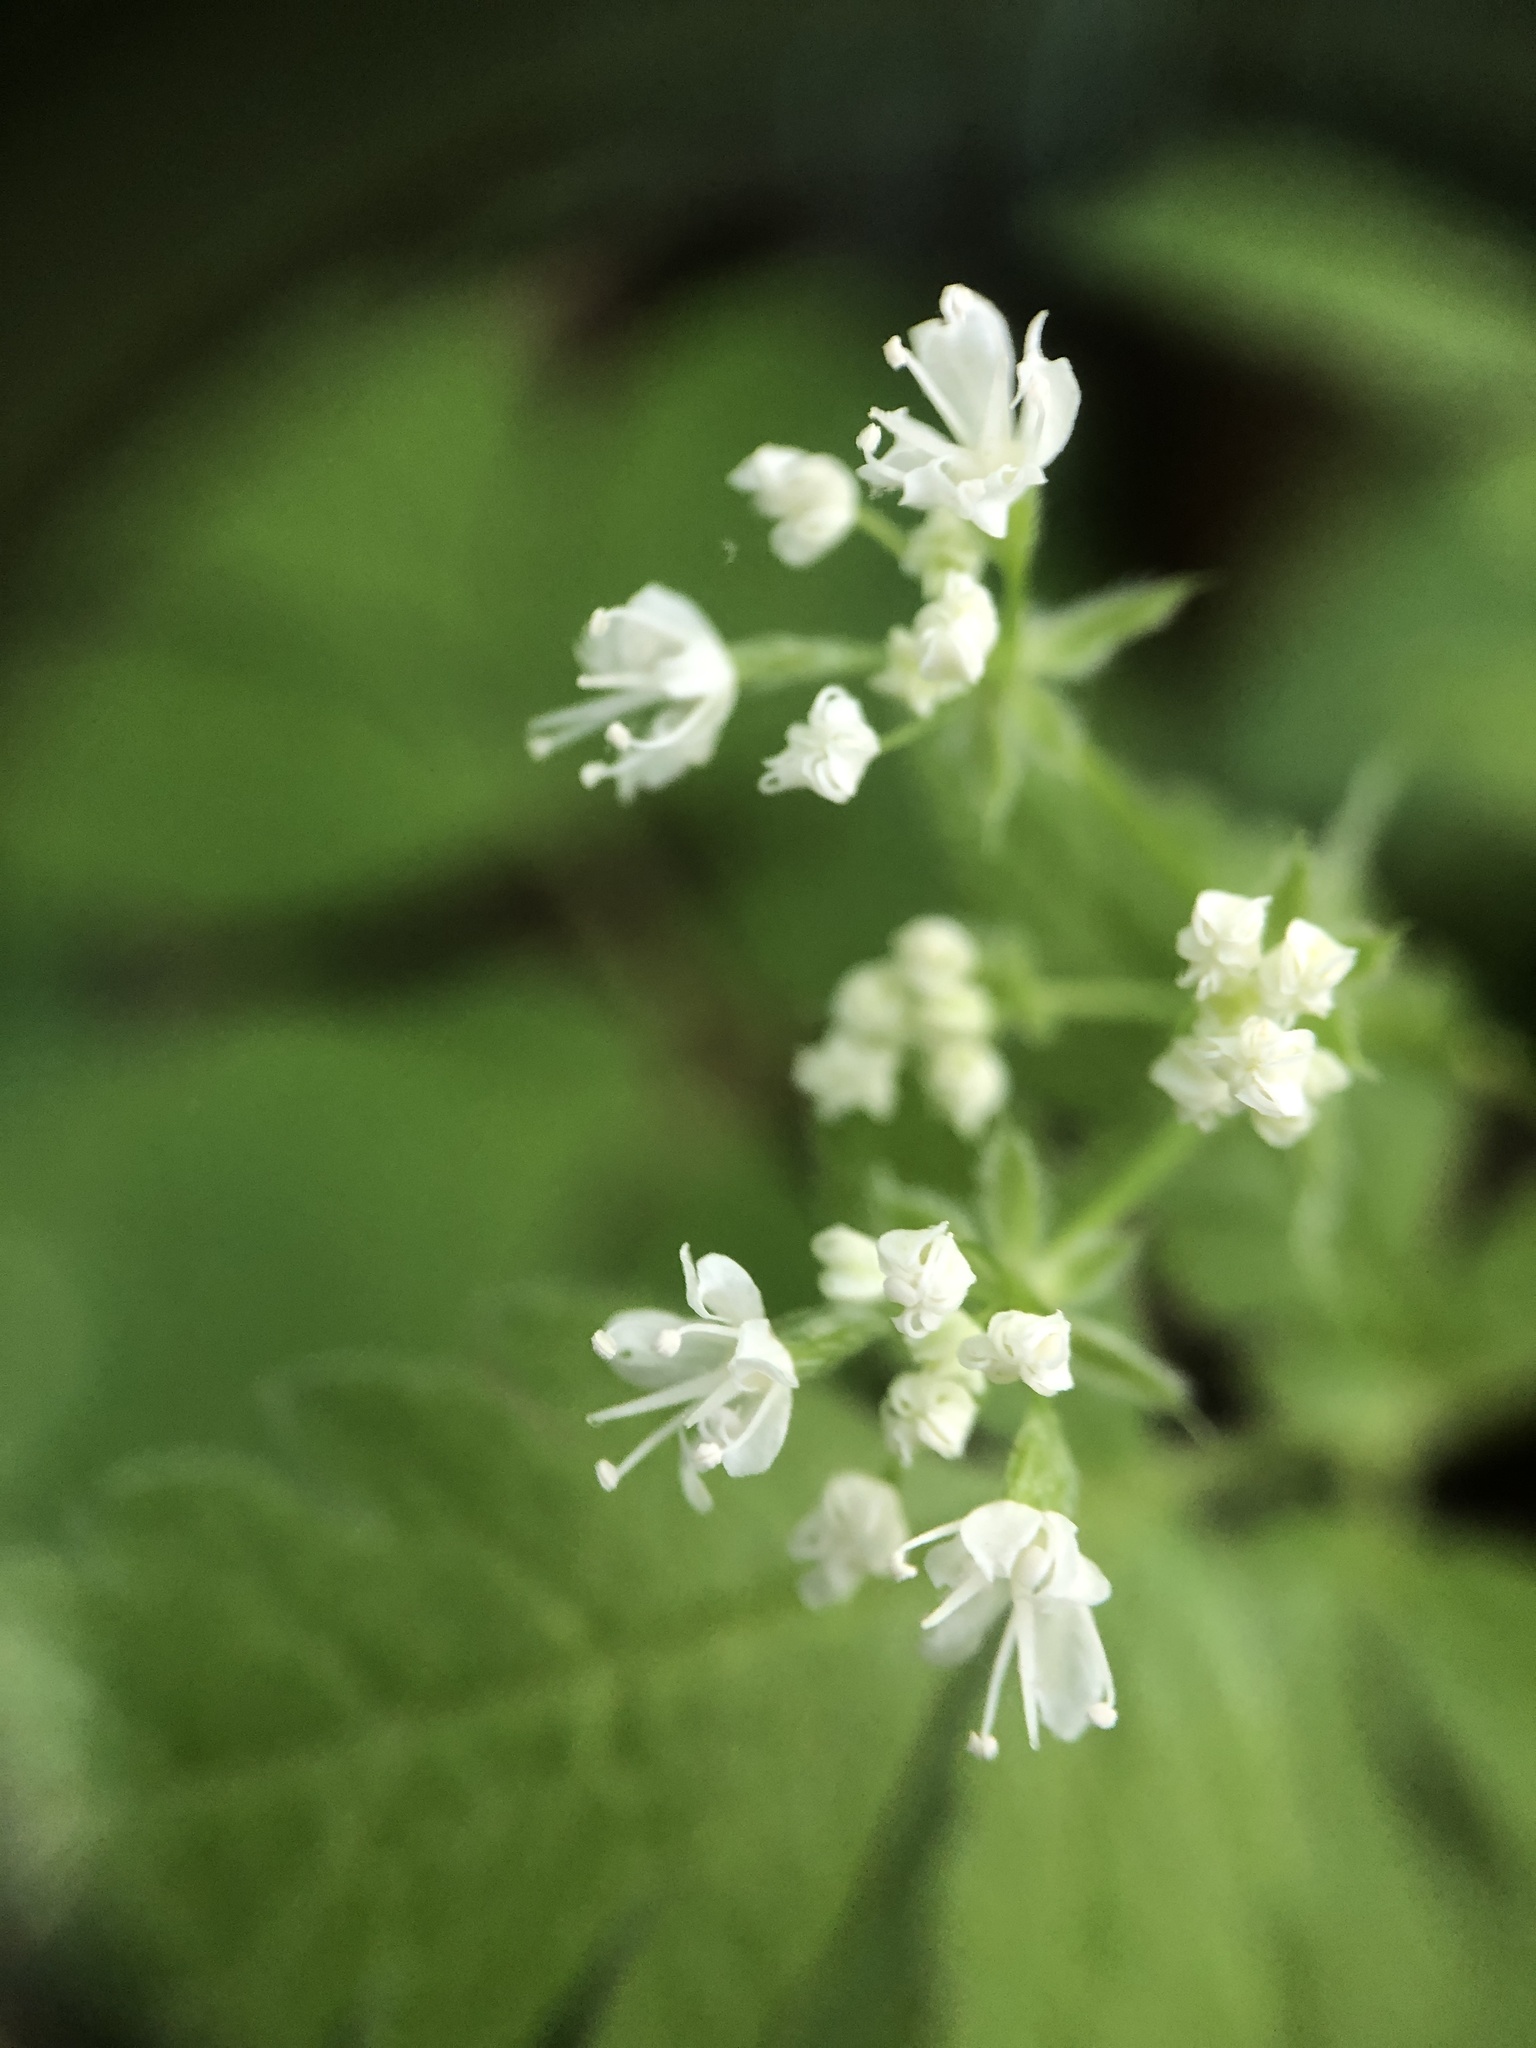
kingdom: Plantae
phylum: Tracheophyta
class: Magnoliopsida
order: Apiales
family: Apiaceae
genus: Osmorhiza
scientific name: Osmorhiza longistylis
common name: Smooth sweet cicely
